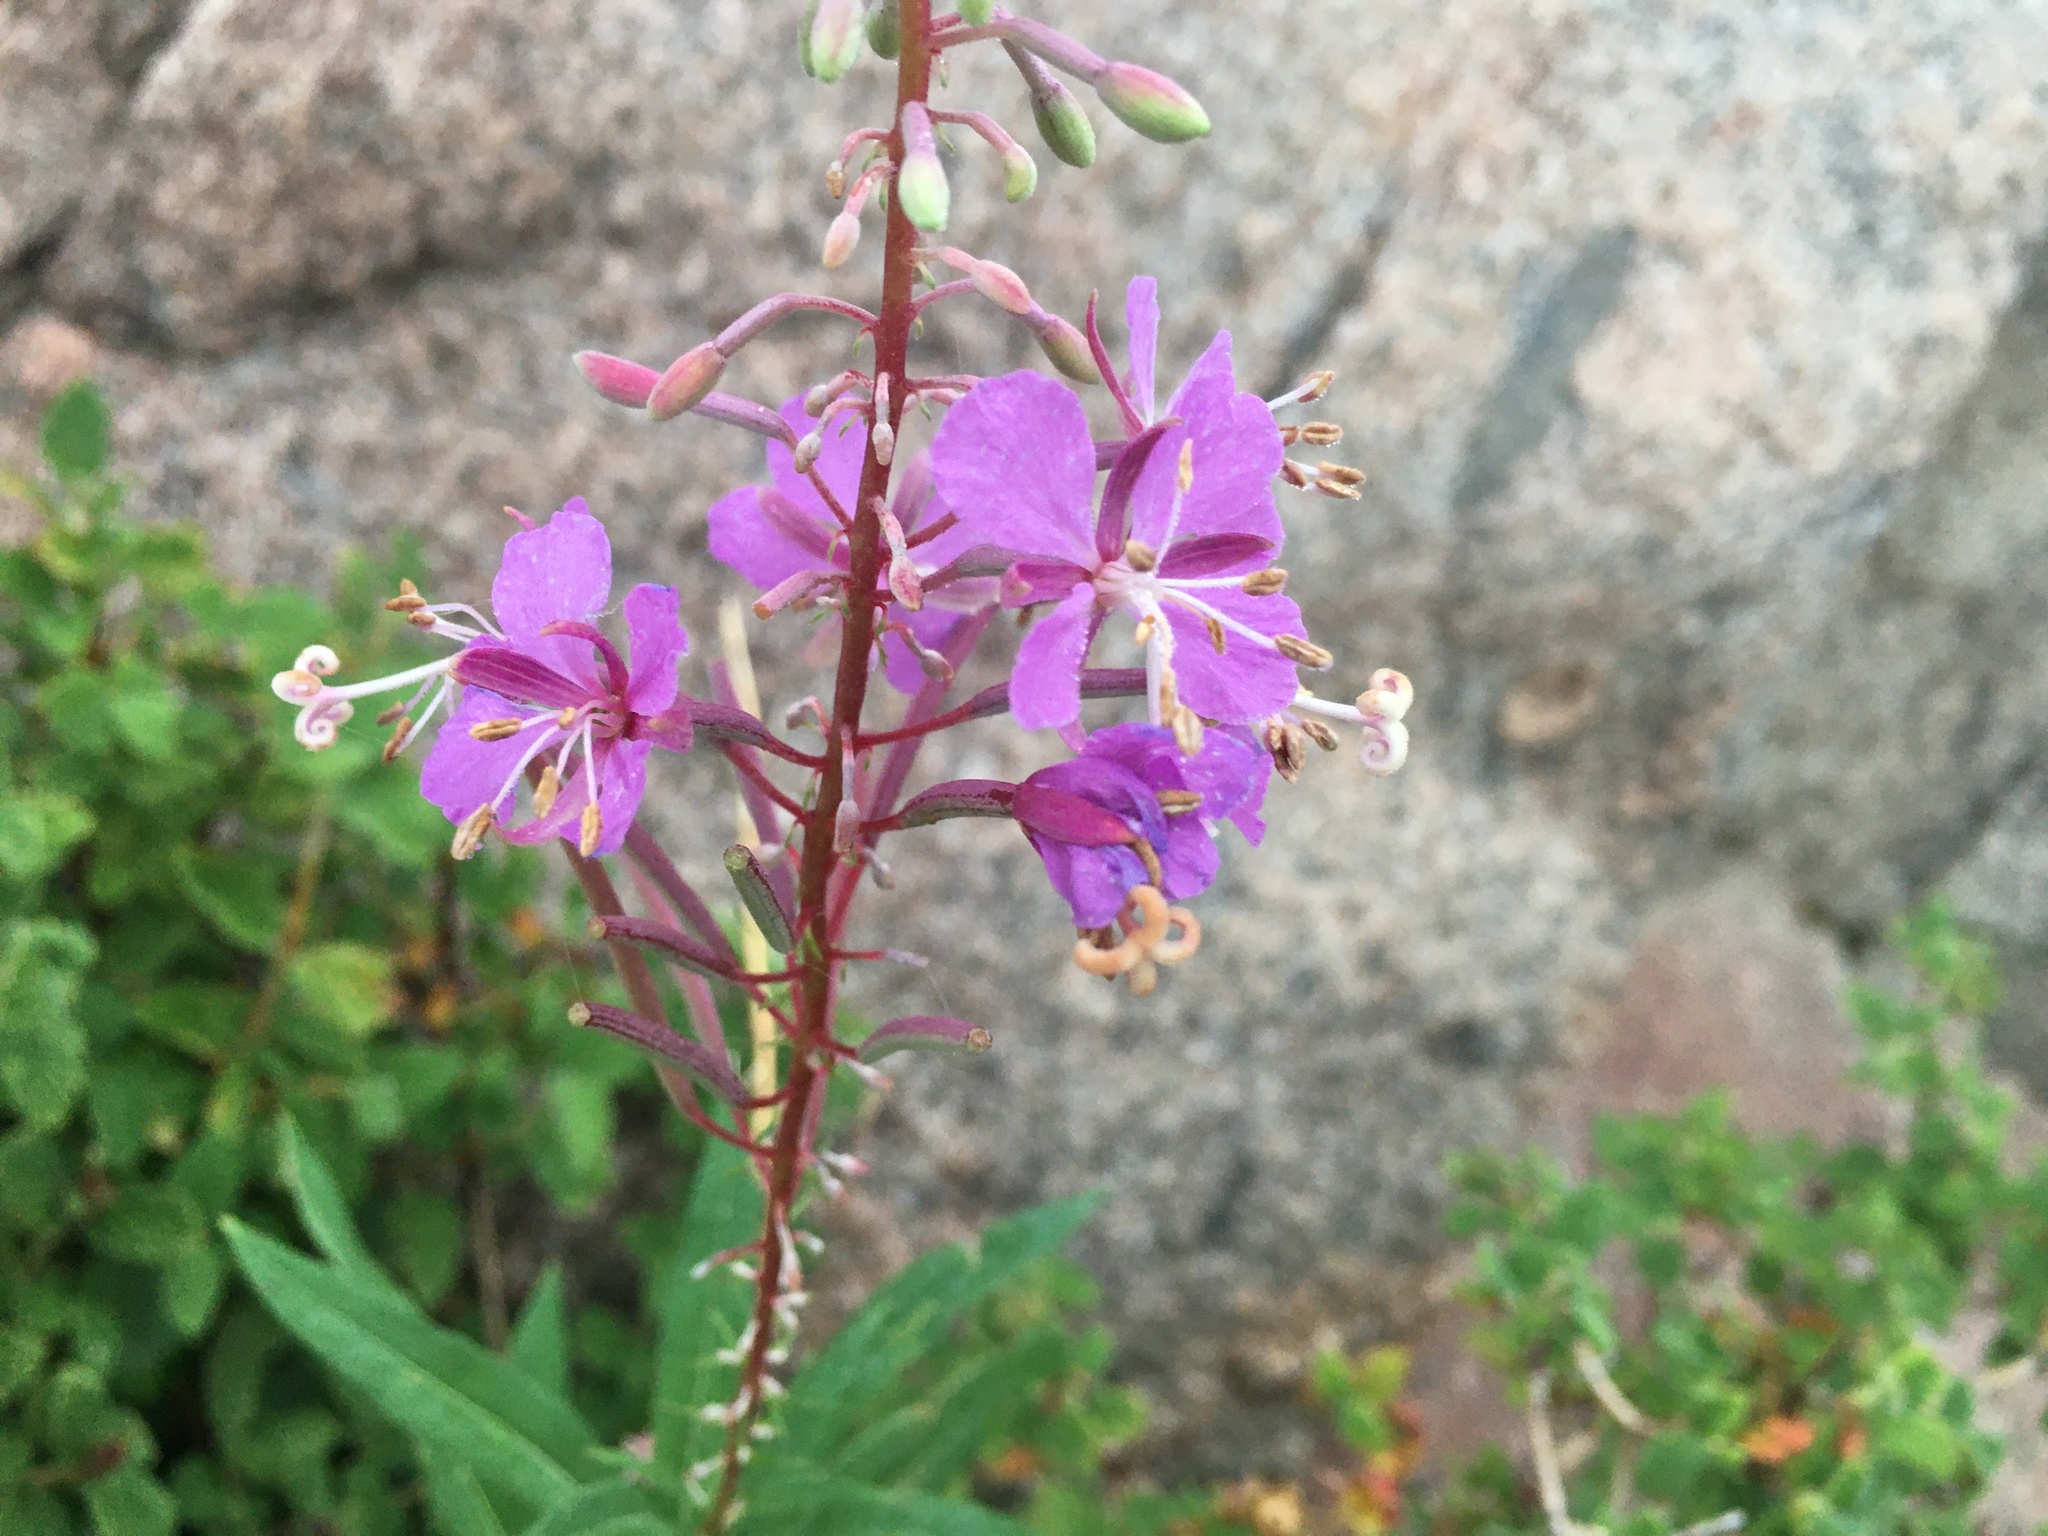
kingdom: Plantae
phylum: Tracheophyta
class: Magnoliopsida
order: Myrtales
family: Onagraceae
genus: Chamaenerion
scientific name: Chamaenerion angustifolium
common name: Fireweed
